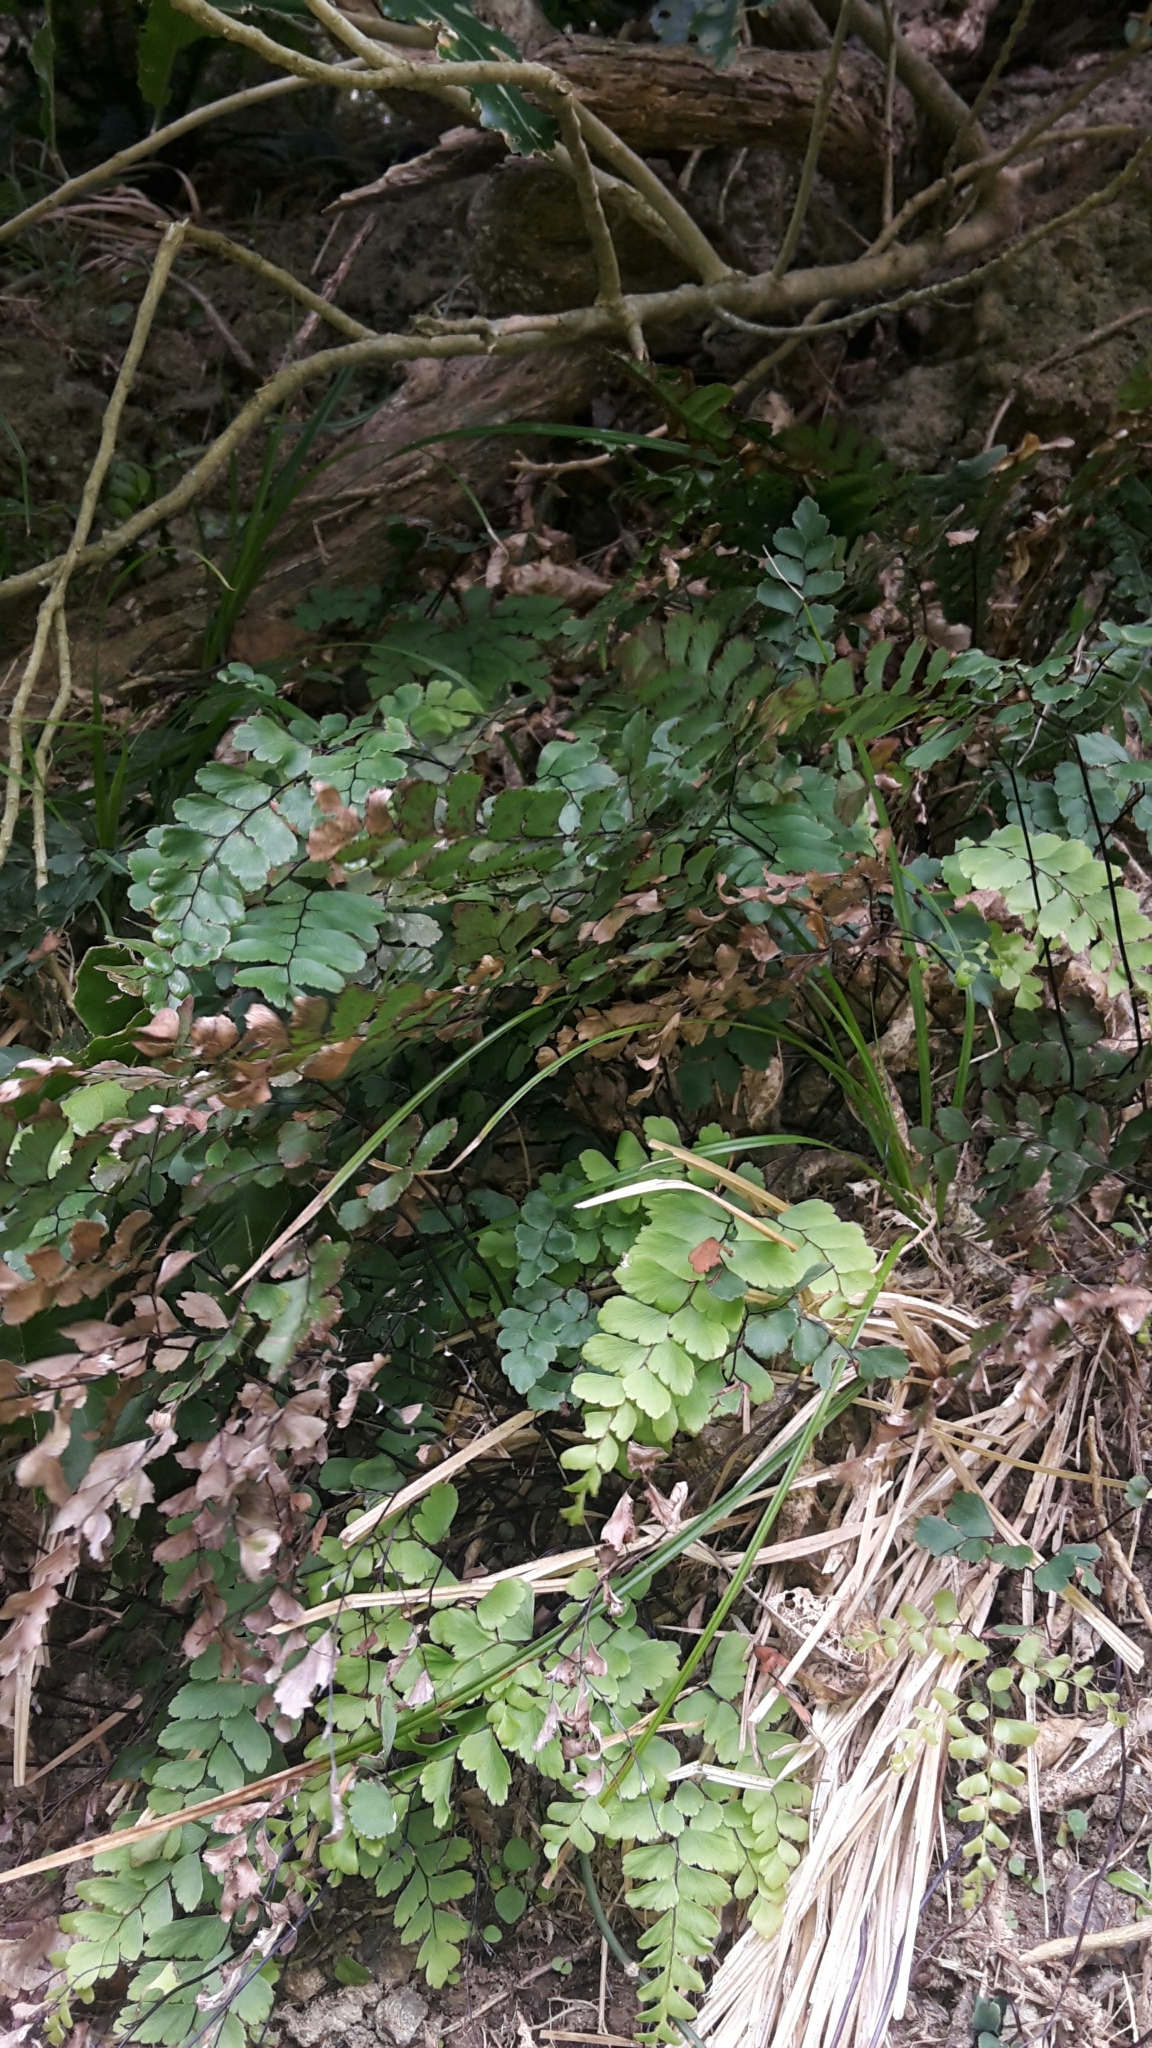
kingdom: Plantae
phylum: Tracheophyta
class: Polypodiopsida
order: Polypodiales
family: Pteridaceae
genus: Adiantum
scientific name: Adiantum cunninghamii
